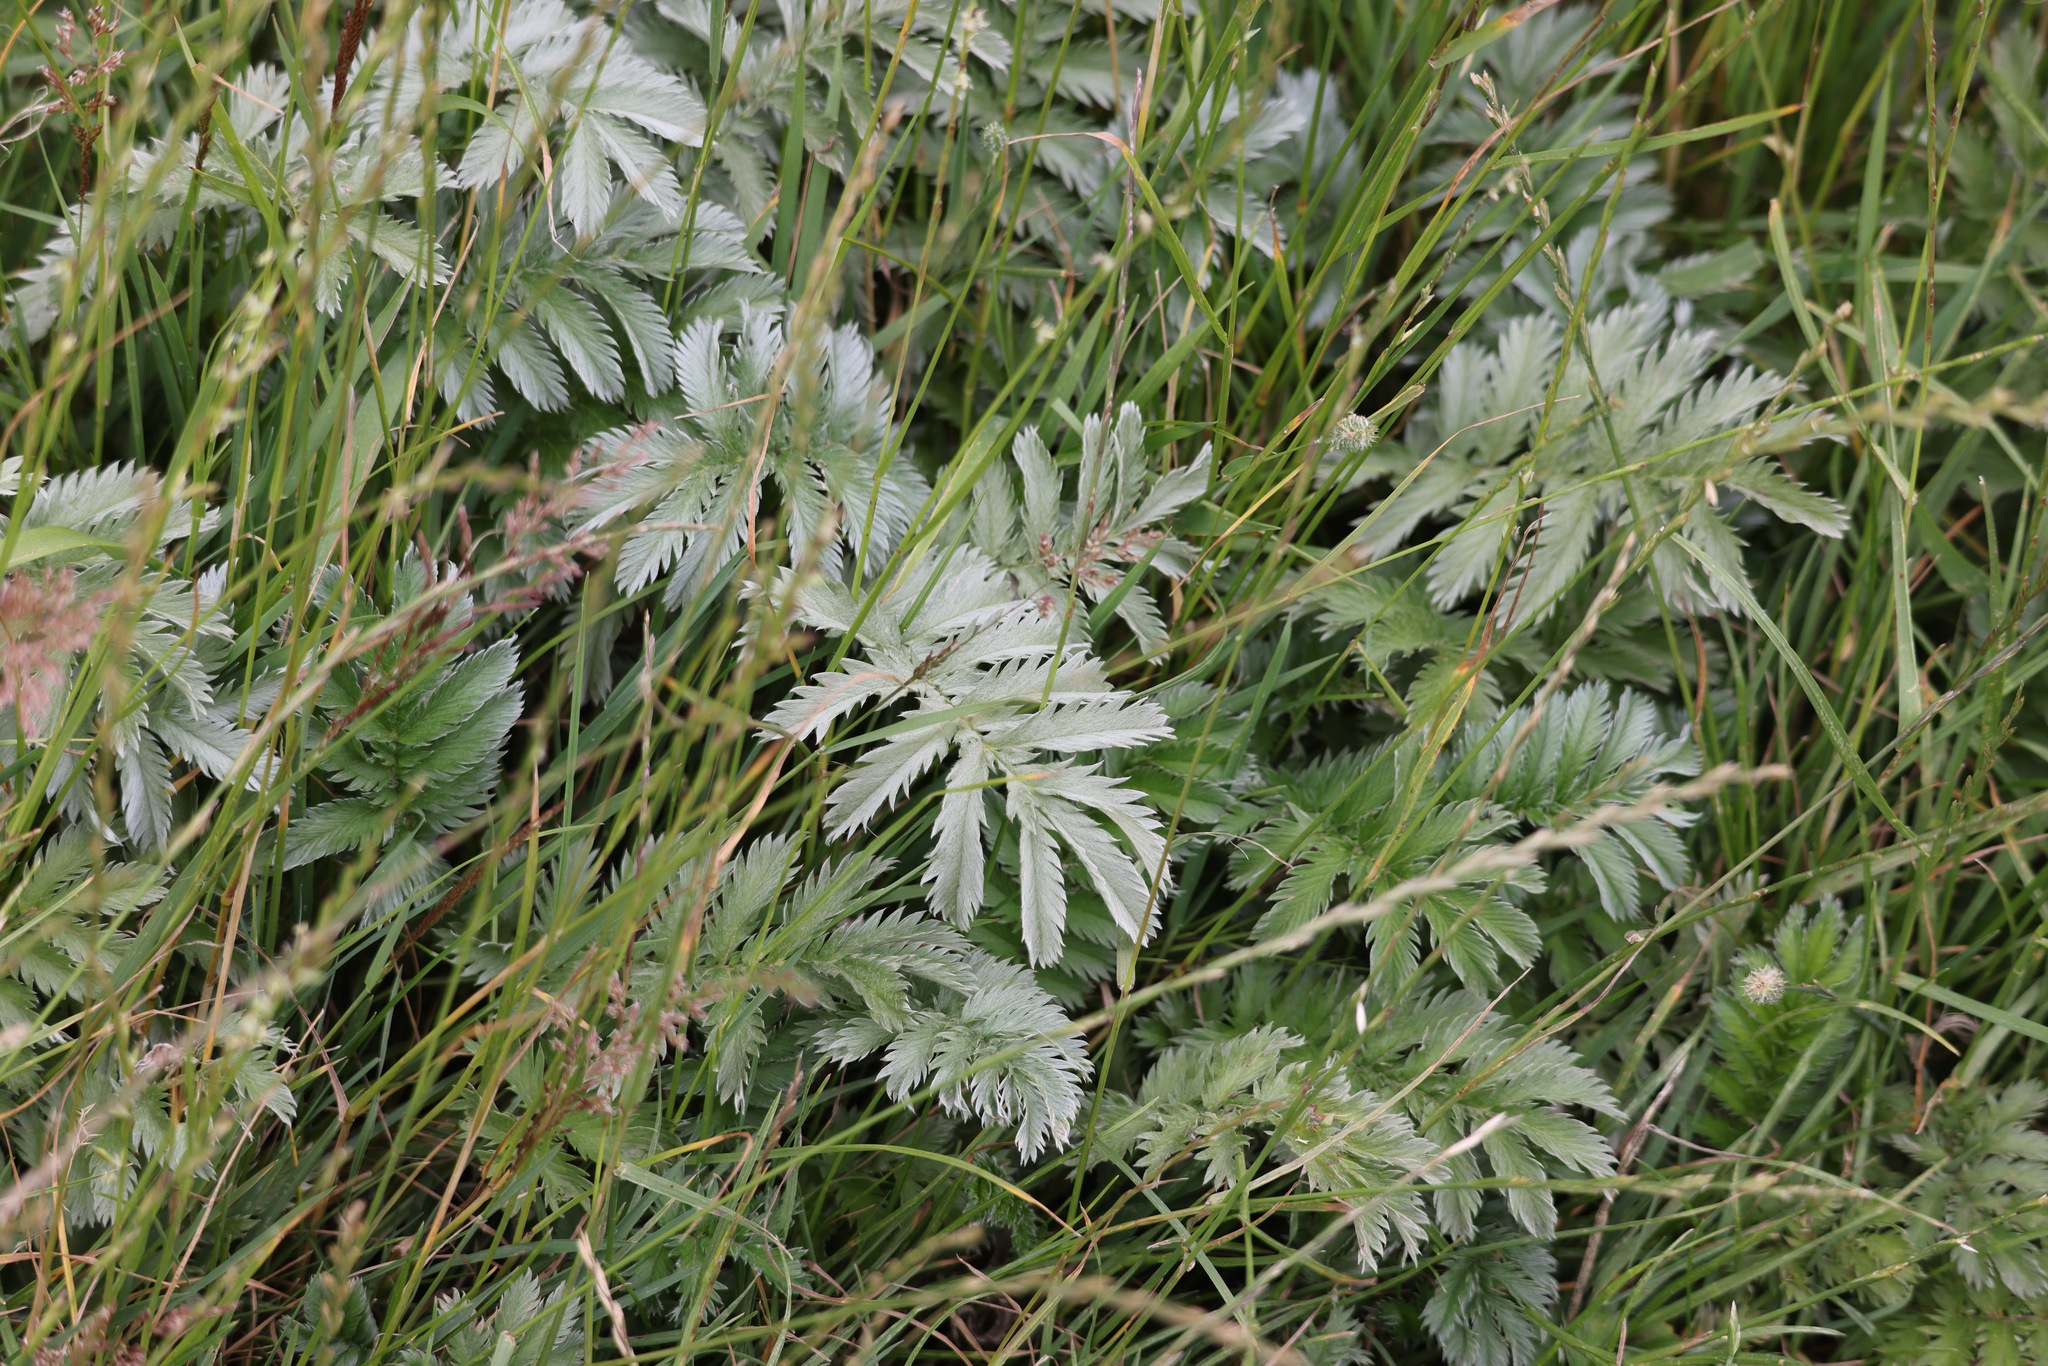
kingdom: Plantae
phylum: Tracheophyta
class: Magnoliopsida
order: Rosales
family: Rosaceae
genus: Argentina
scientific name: Argentina anserina
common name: Common silverweed
